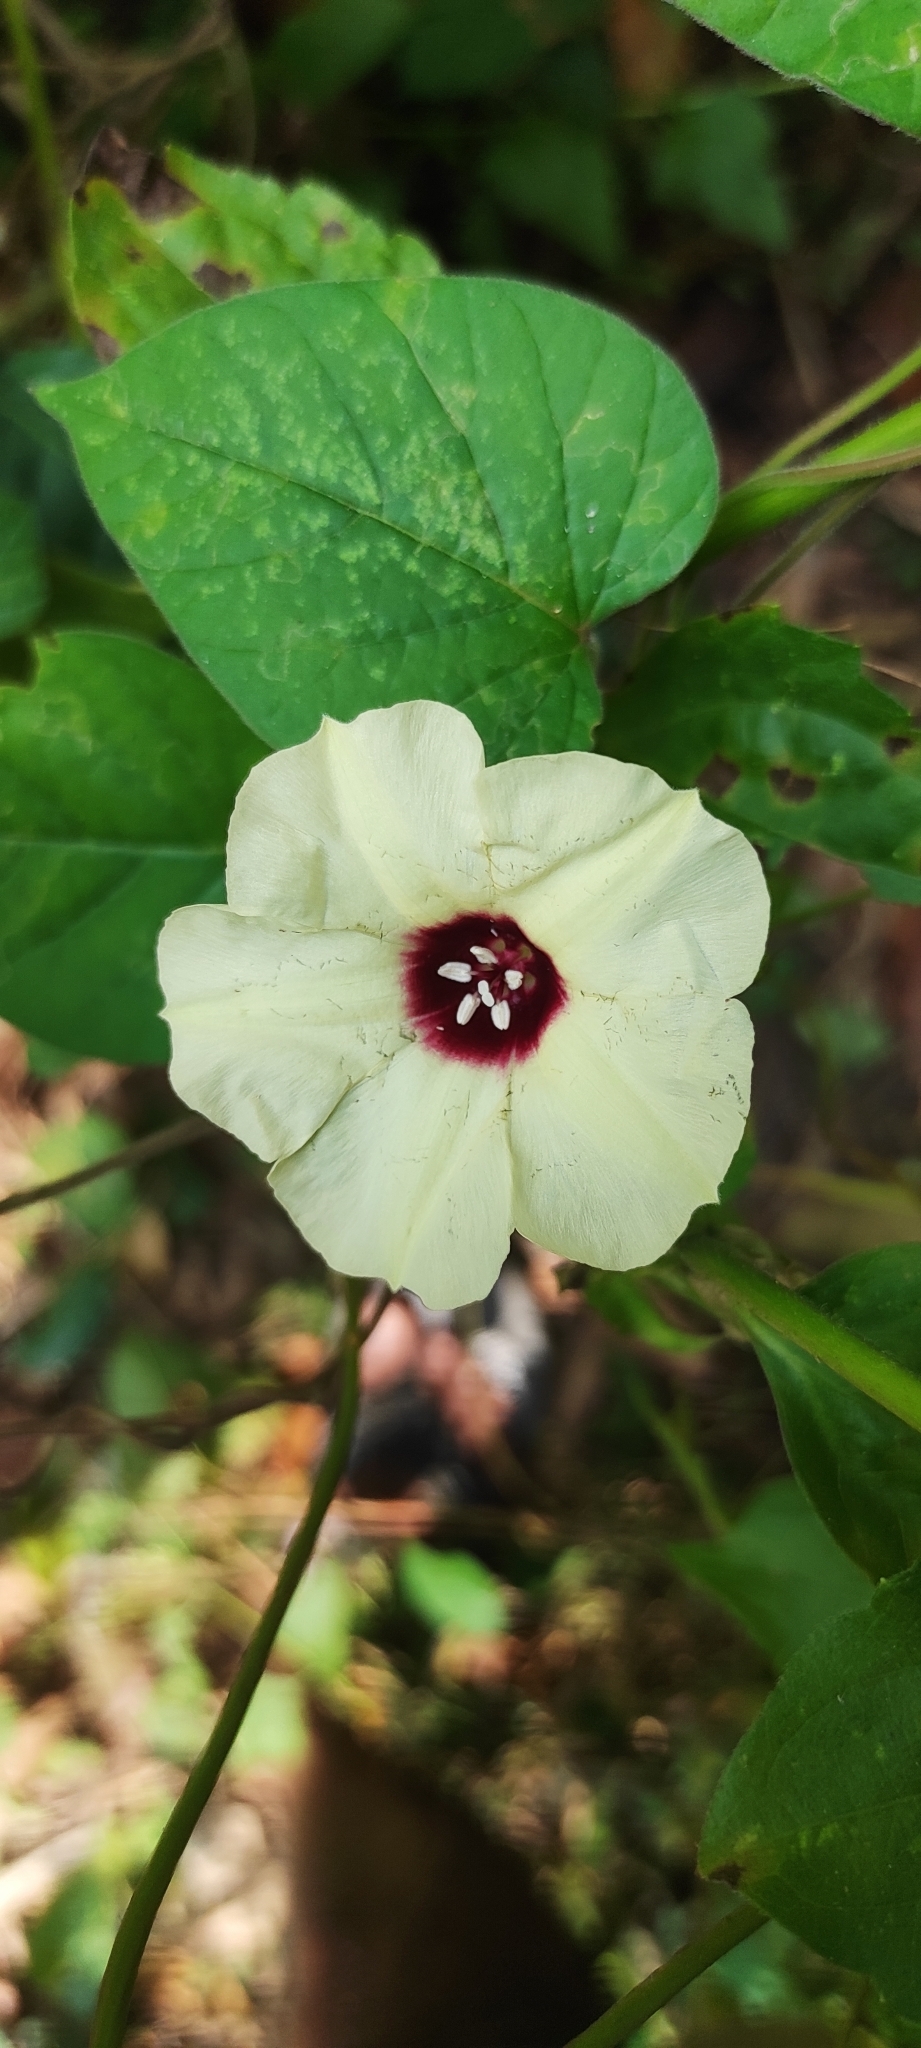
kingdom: Plantae
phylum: Tracheophyta
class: Magnoliopsida
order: Solanales
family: Convolvulaceae
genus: Hewittia
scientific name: Hewittia malabarica
